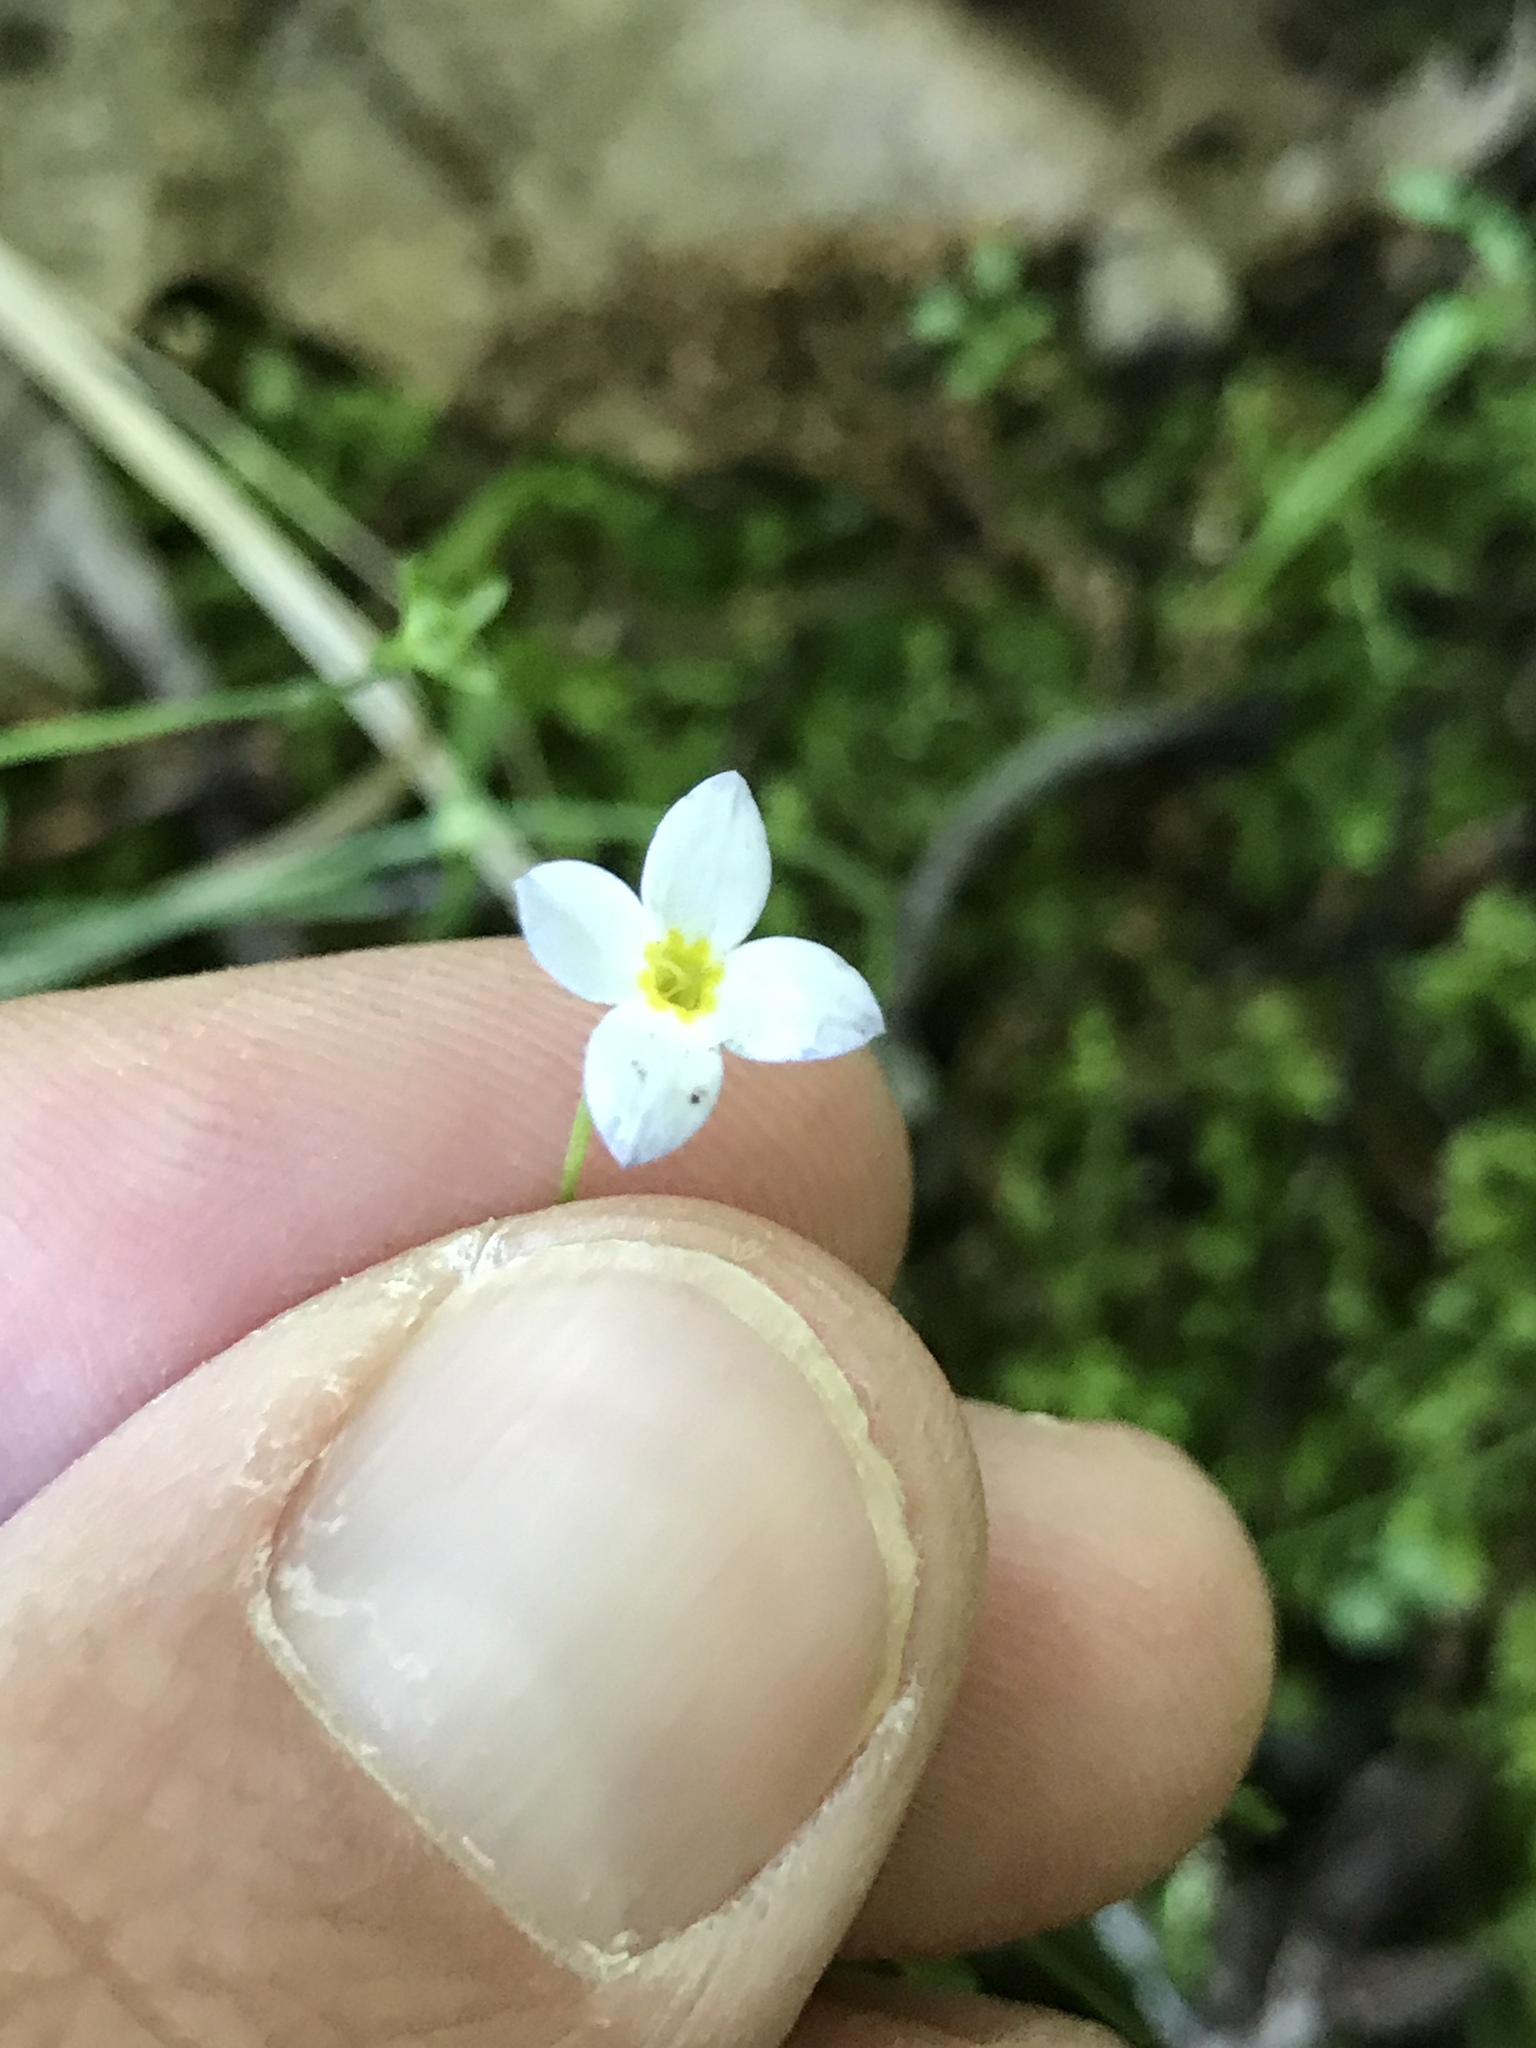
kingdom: Plantae
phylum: Tracheophyta
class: Magnoliopsida
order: Gentianales
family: Rubiaceae
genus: Houstonia
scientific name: Houstonia caerulea
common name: Bluets
